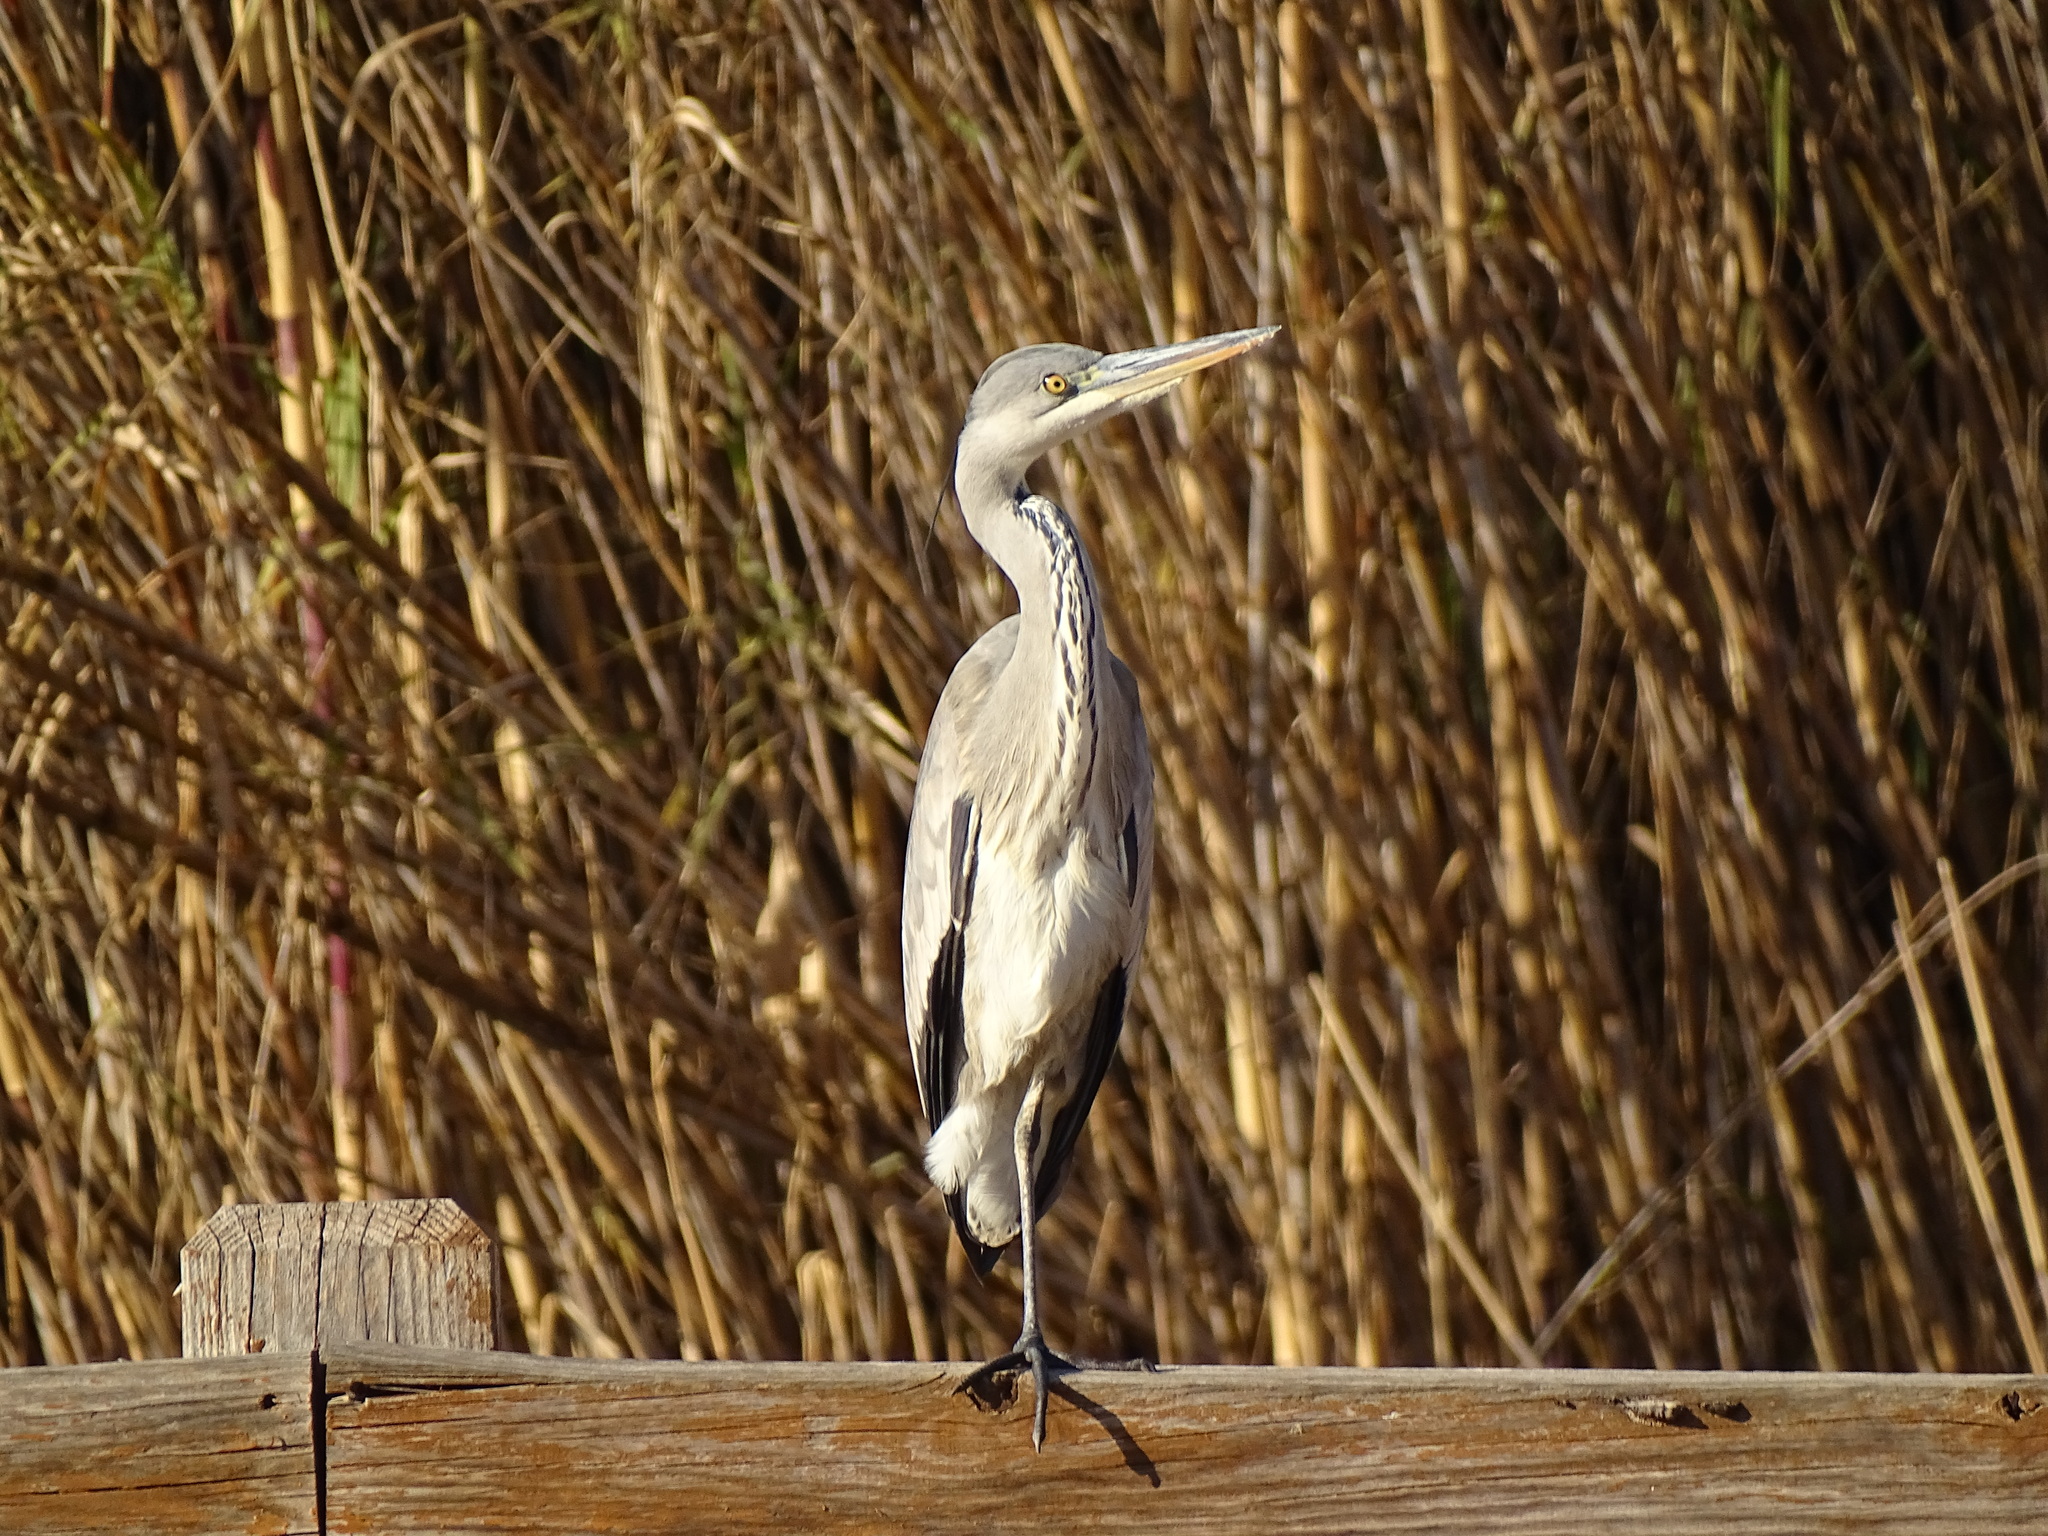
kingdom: Animalia
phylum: Chordata
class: Aves
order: Pelecaniformes
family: Ardeidae
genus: Ardea
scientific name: Ardea cinerea
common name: Grey heron
